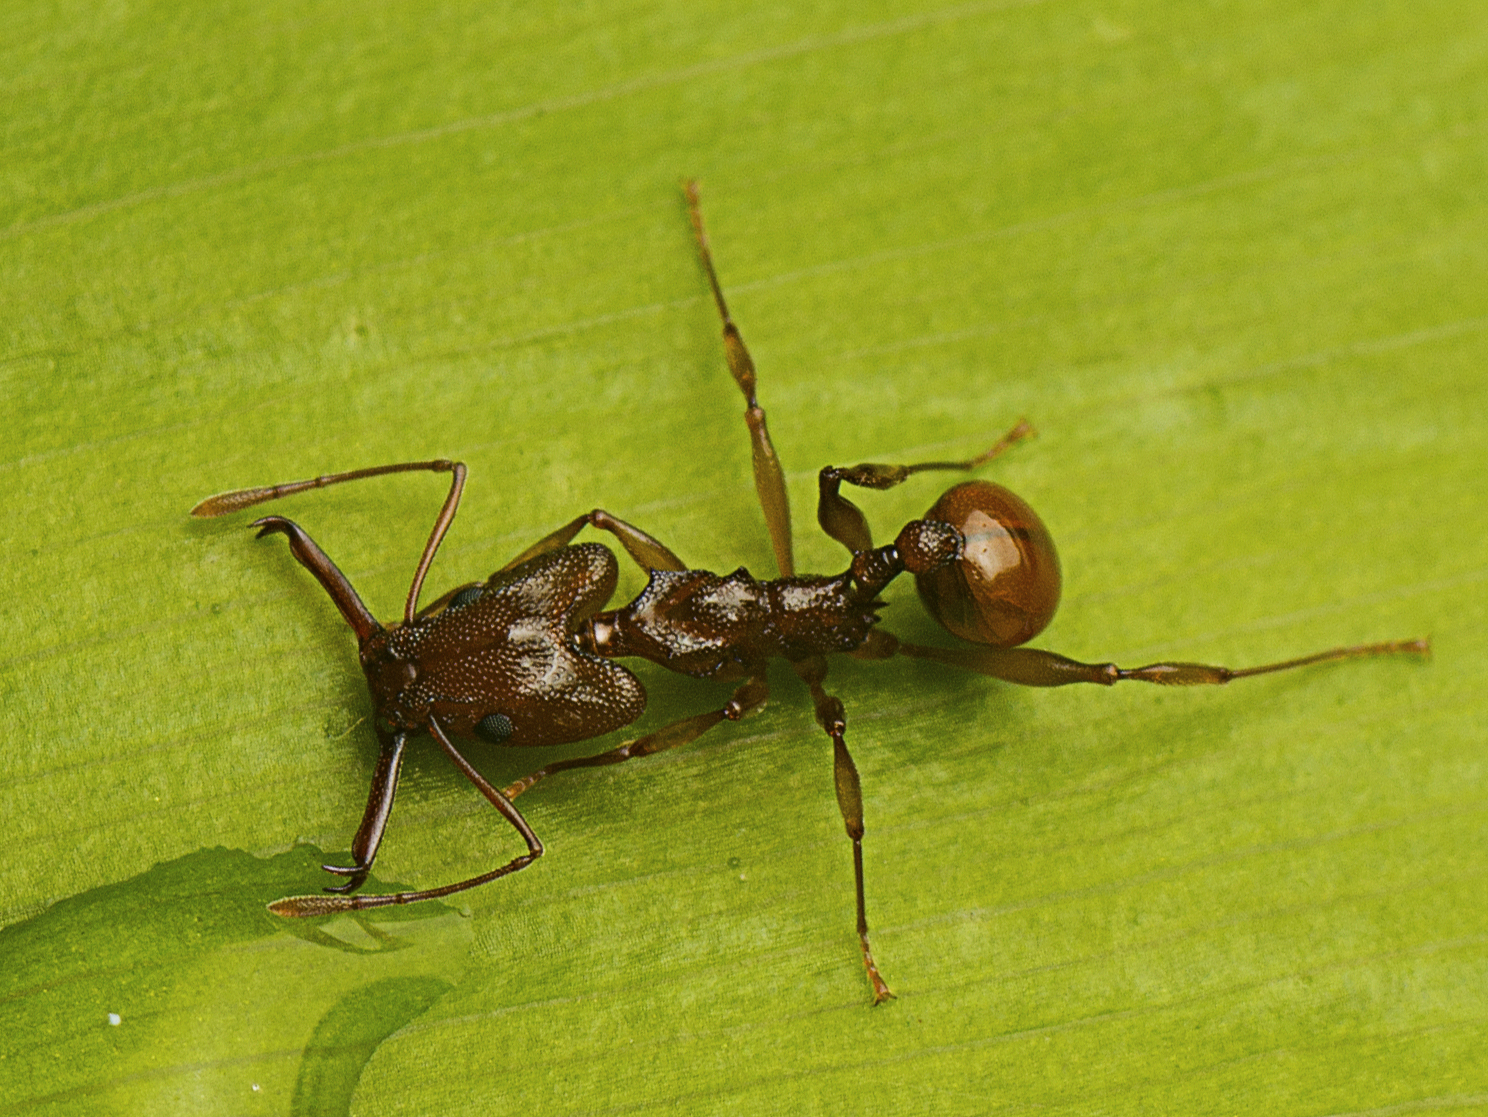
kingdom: Animalia
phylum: Arthropoda
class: Insecta
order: Hymenoptera
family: Formicidae
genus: Orectognathus
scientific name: Orectognathus antennatus
